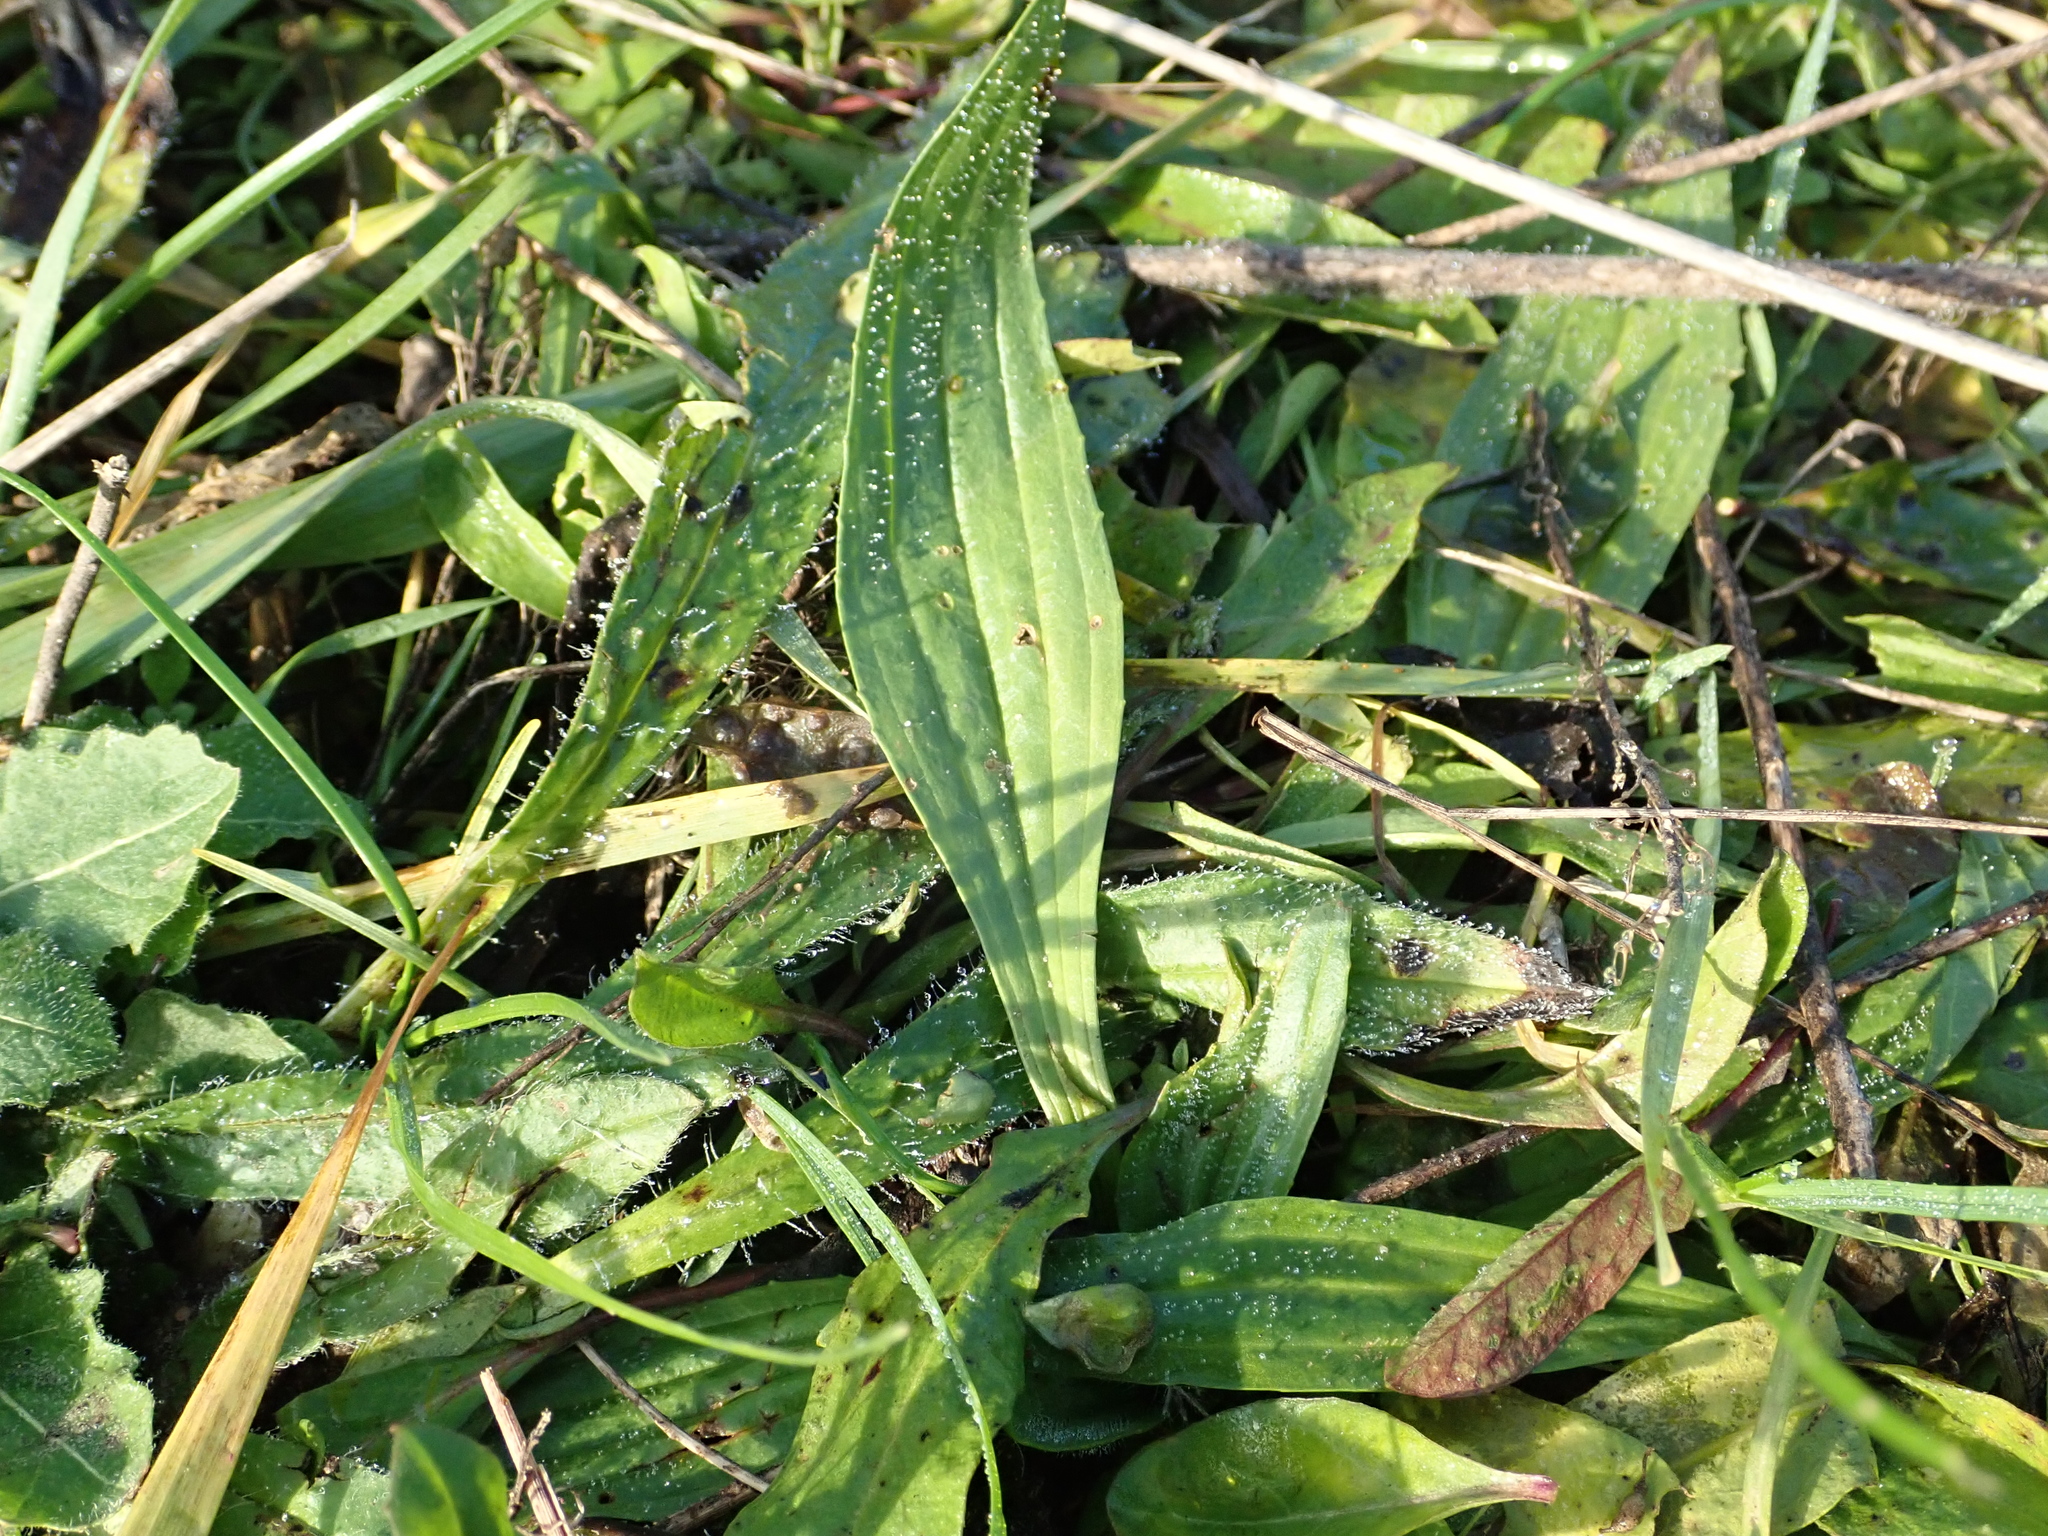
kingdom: Plantae
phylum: Tracheophyta
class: Magnoliopsida
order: Lamiales
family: Plantaginaceae
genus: Plantago
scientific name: Plantago lanceolata
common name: Ribwort plantain
